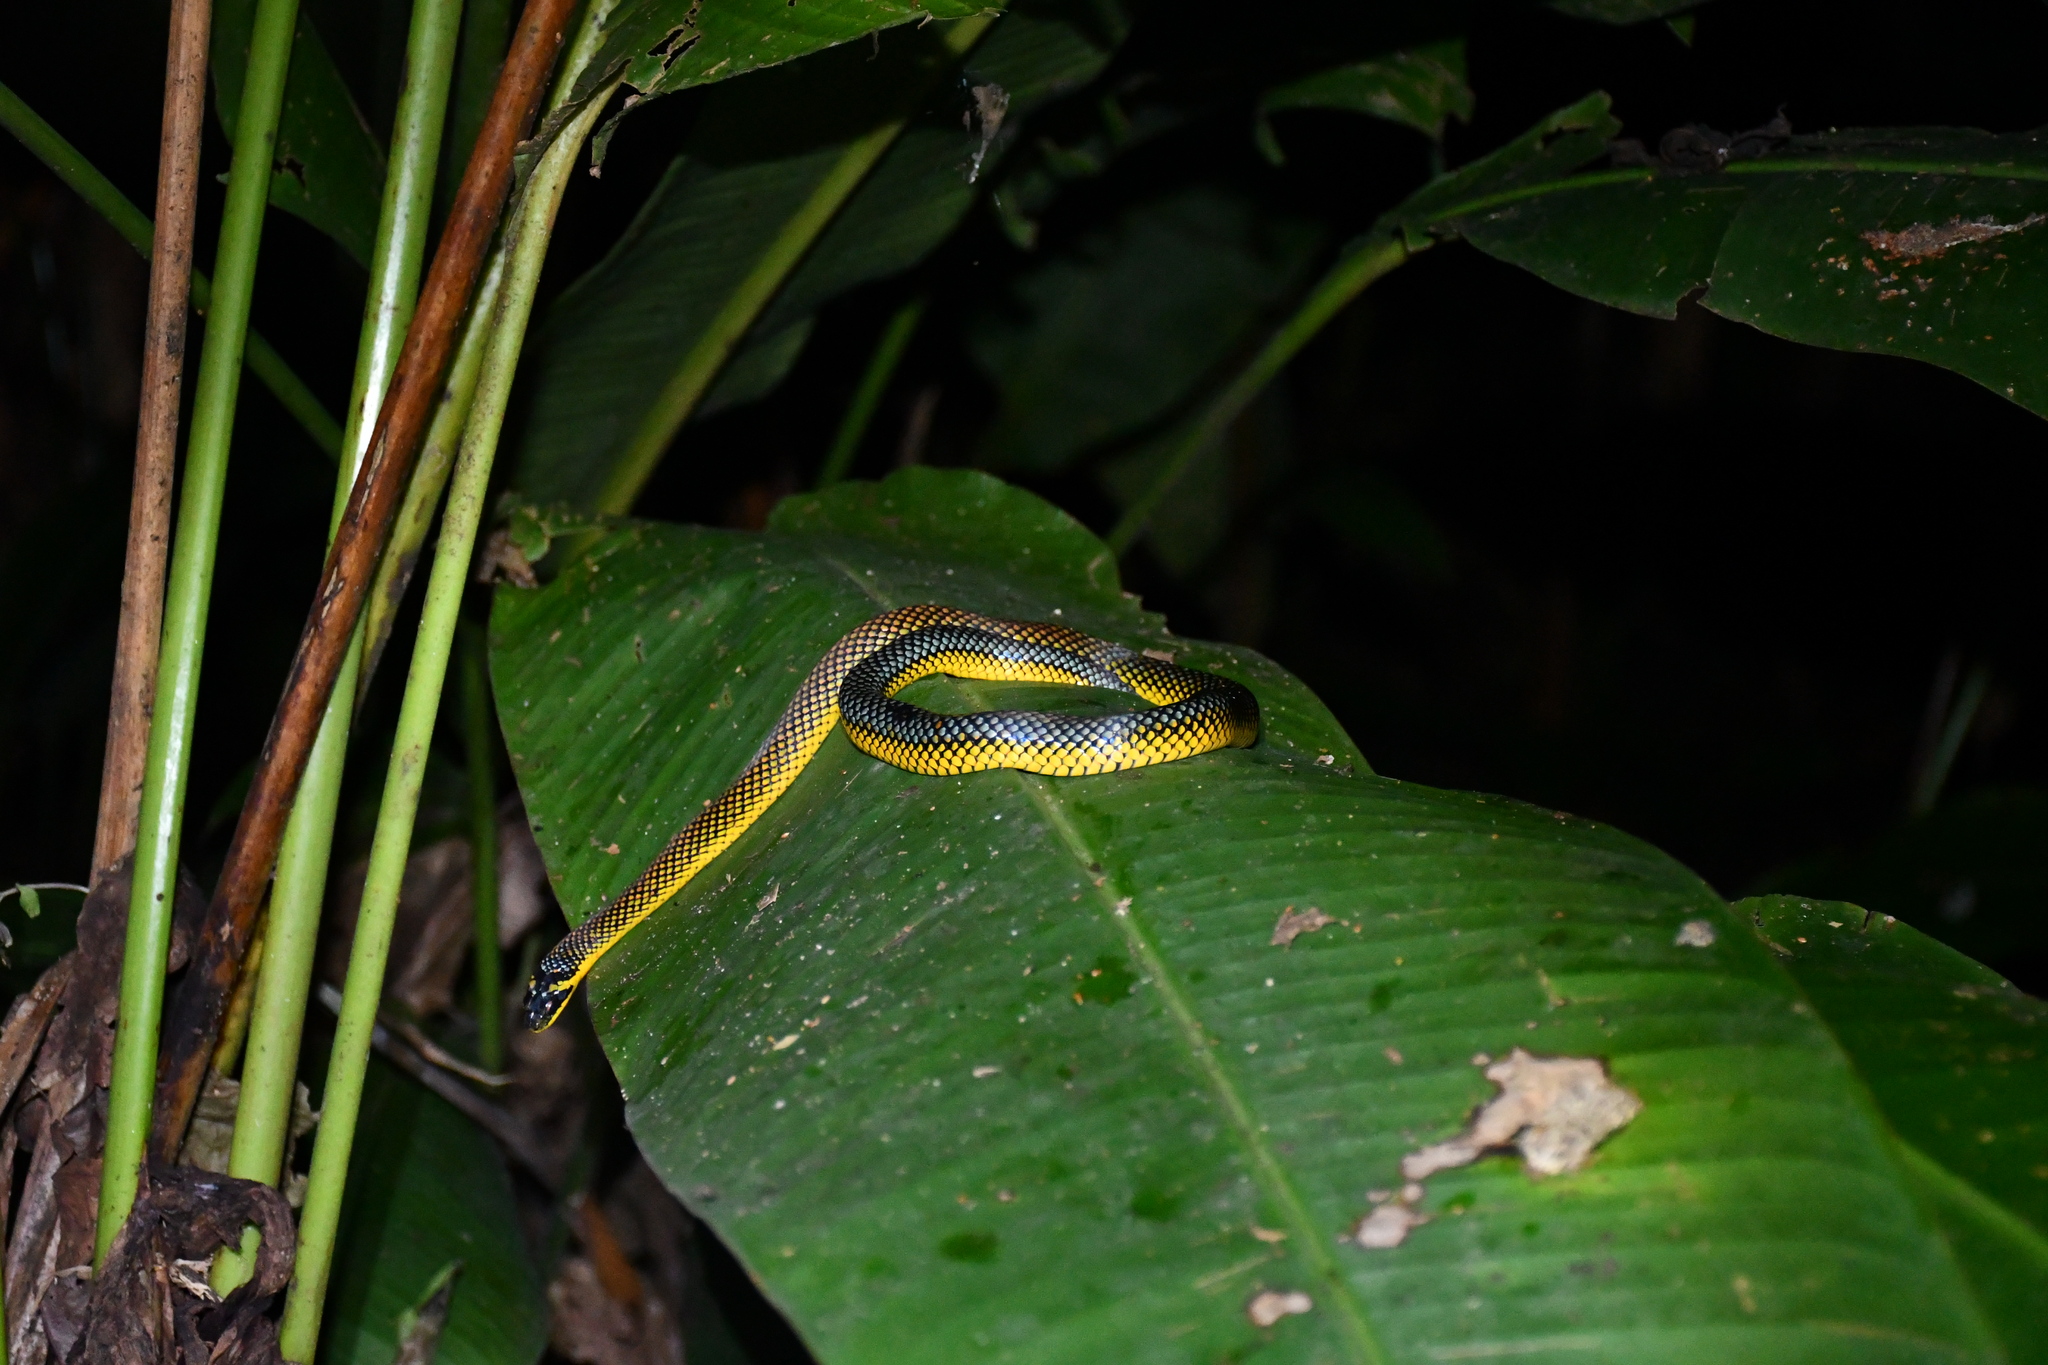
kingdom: Animalia
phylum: Chordata
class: Squamata
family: Colubridae
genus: Erythrolamprus
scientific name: Erythrolamprus dorsocorallinus
